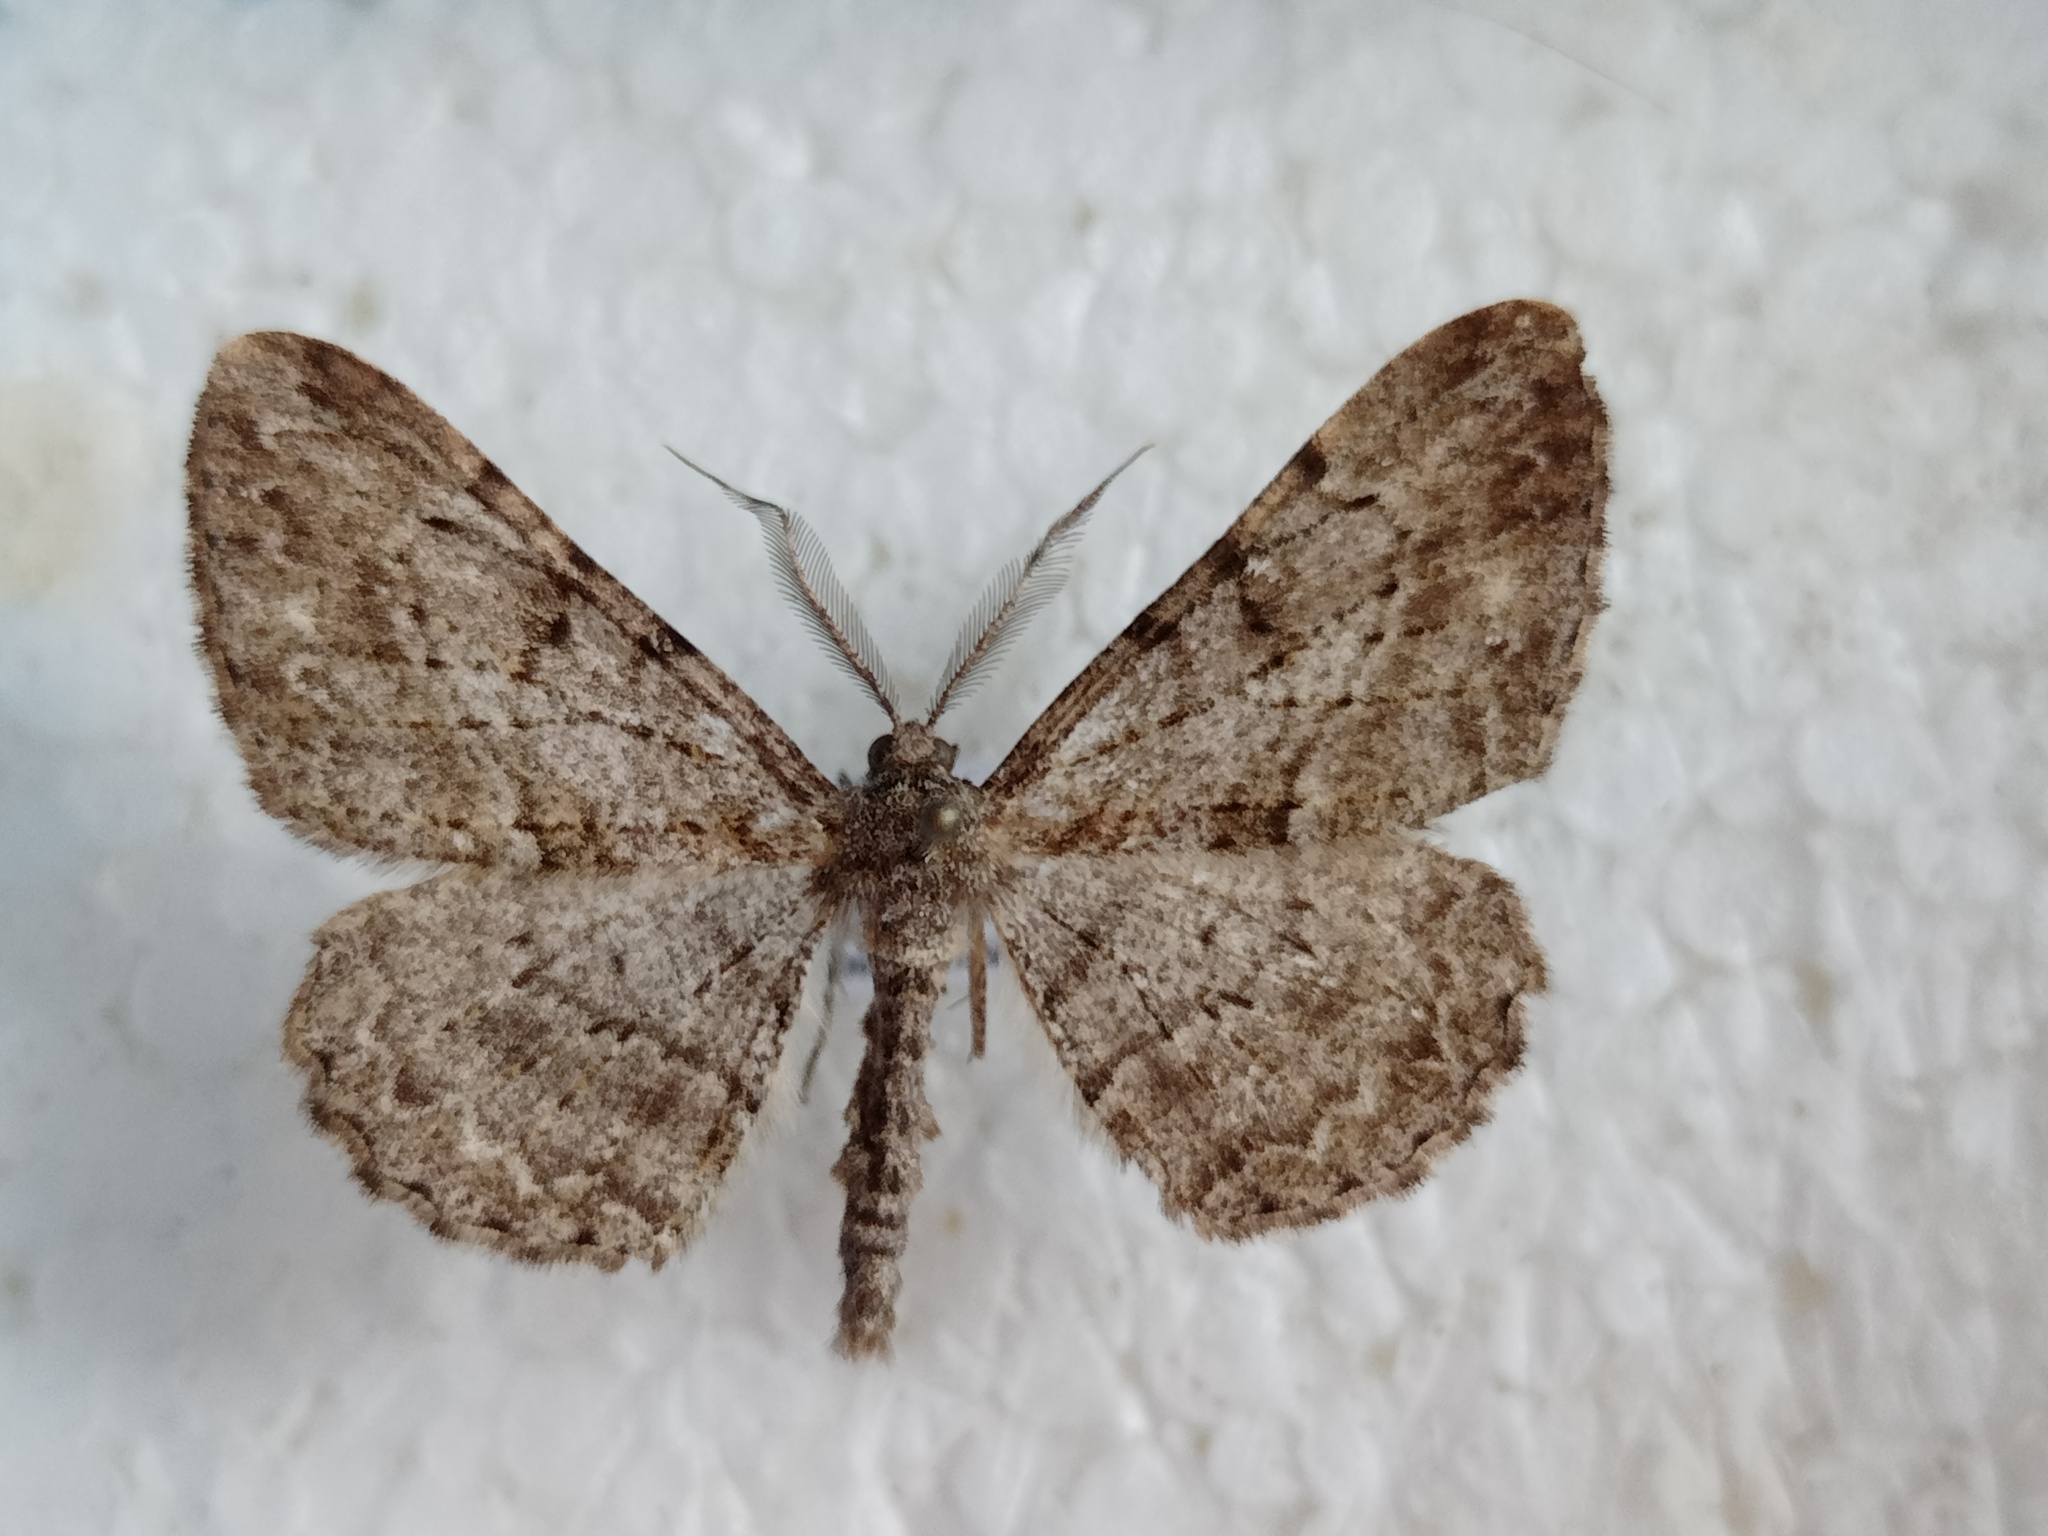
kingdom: Animalia
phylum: Arthropoda
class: Insecta
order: Lepidoptera
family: Geometridae
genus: Peribatodes
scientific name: Peribatodes rhomboidaria
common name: Willow beauty
